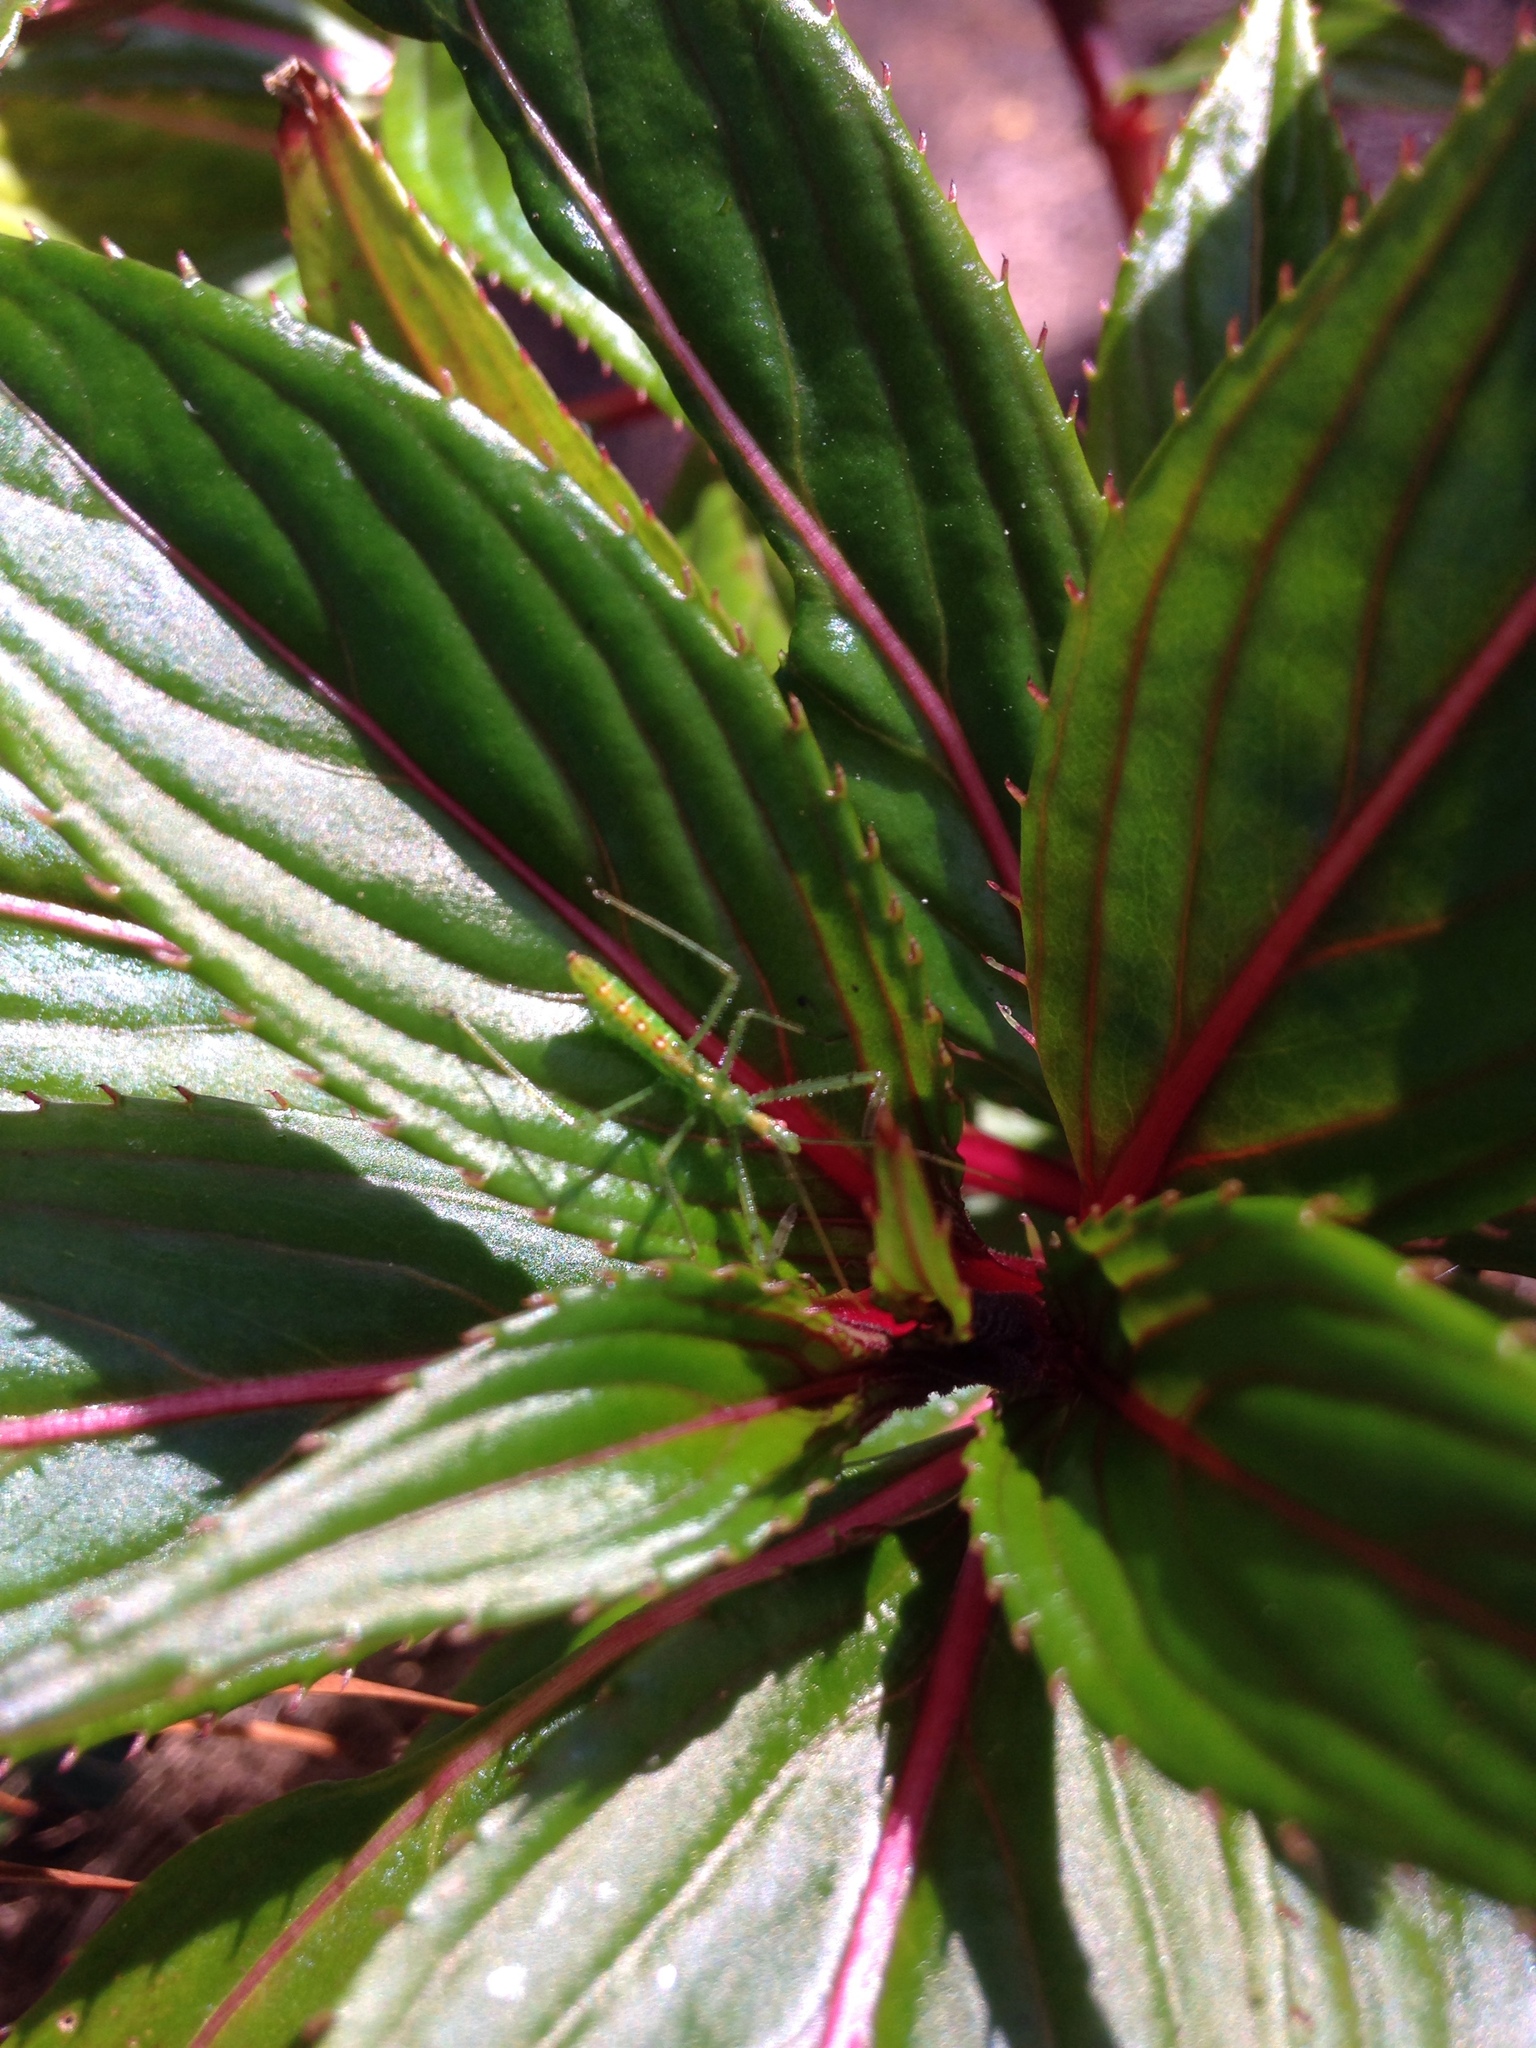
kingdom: Animalia
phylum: Arthropoda
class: Insecta
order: Hemiptera
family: Reduviidae
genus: Zelus
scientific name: Zelus luridus
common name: Pale green assassin bug
